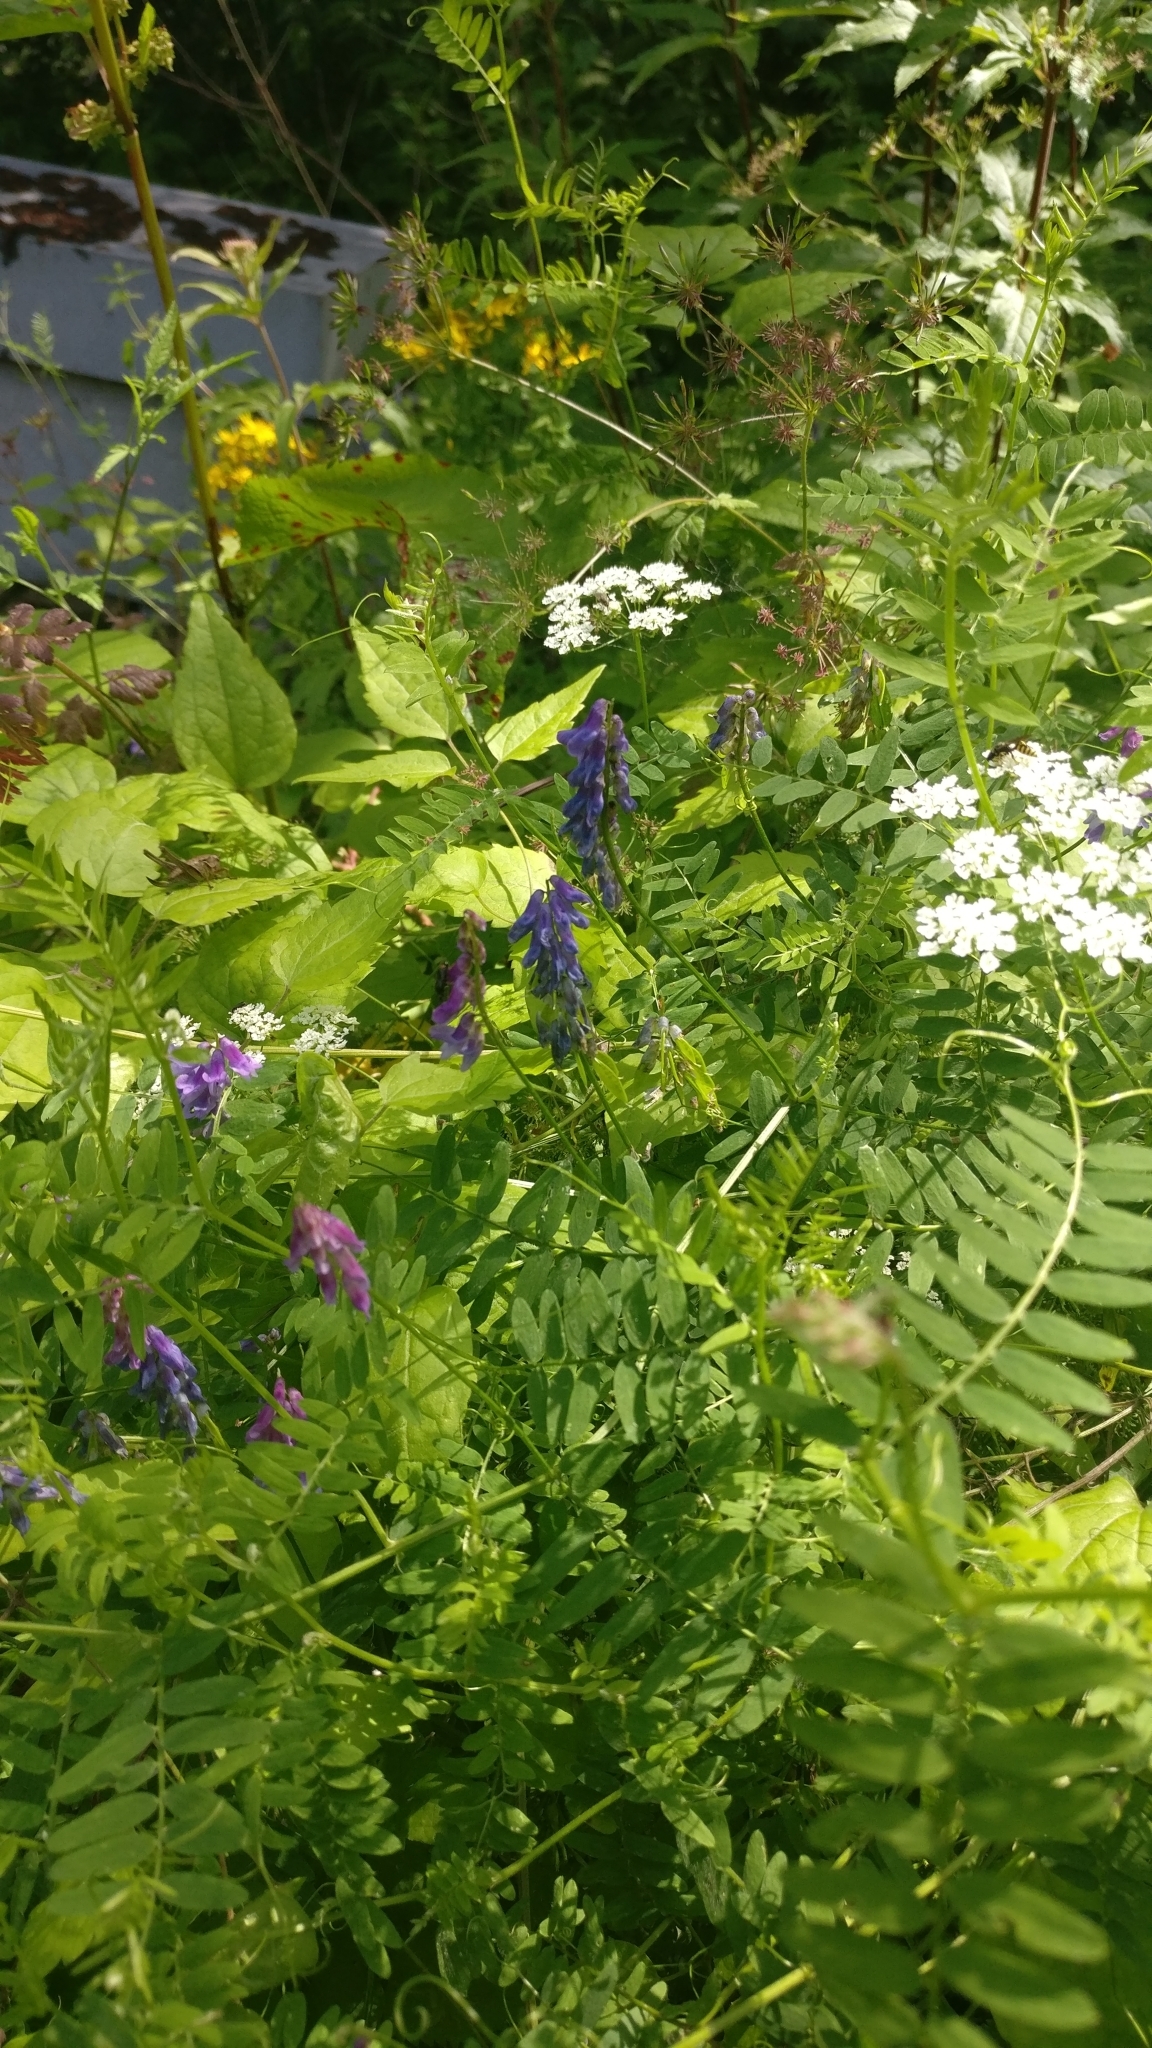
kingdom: Plantae
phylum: Tracheophyta
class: Magnoliopsida
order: Fabales
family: Fabaceae
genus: Vicia
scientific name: Vicia cracca
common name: Bird vetch
